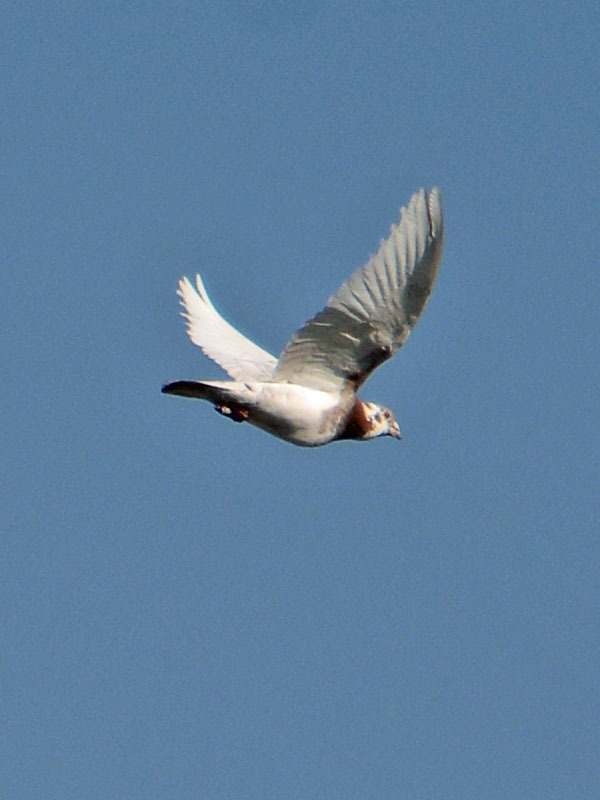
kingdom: Animalia
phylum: Chordata
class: Aves
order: Columbiformes
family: Columbidae
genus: Columba
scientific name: Columba livia
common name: Rock pigeon
